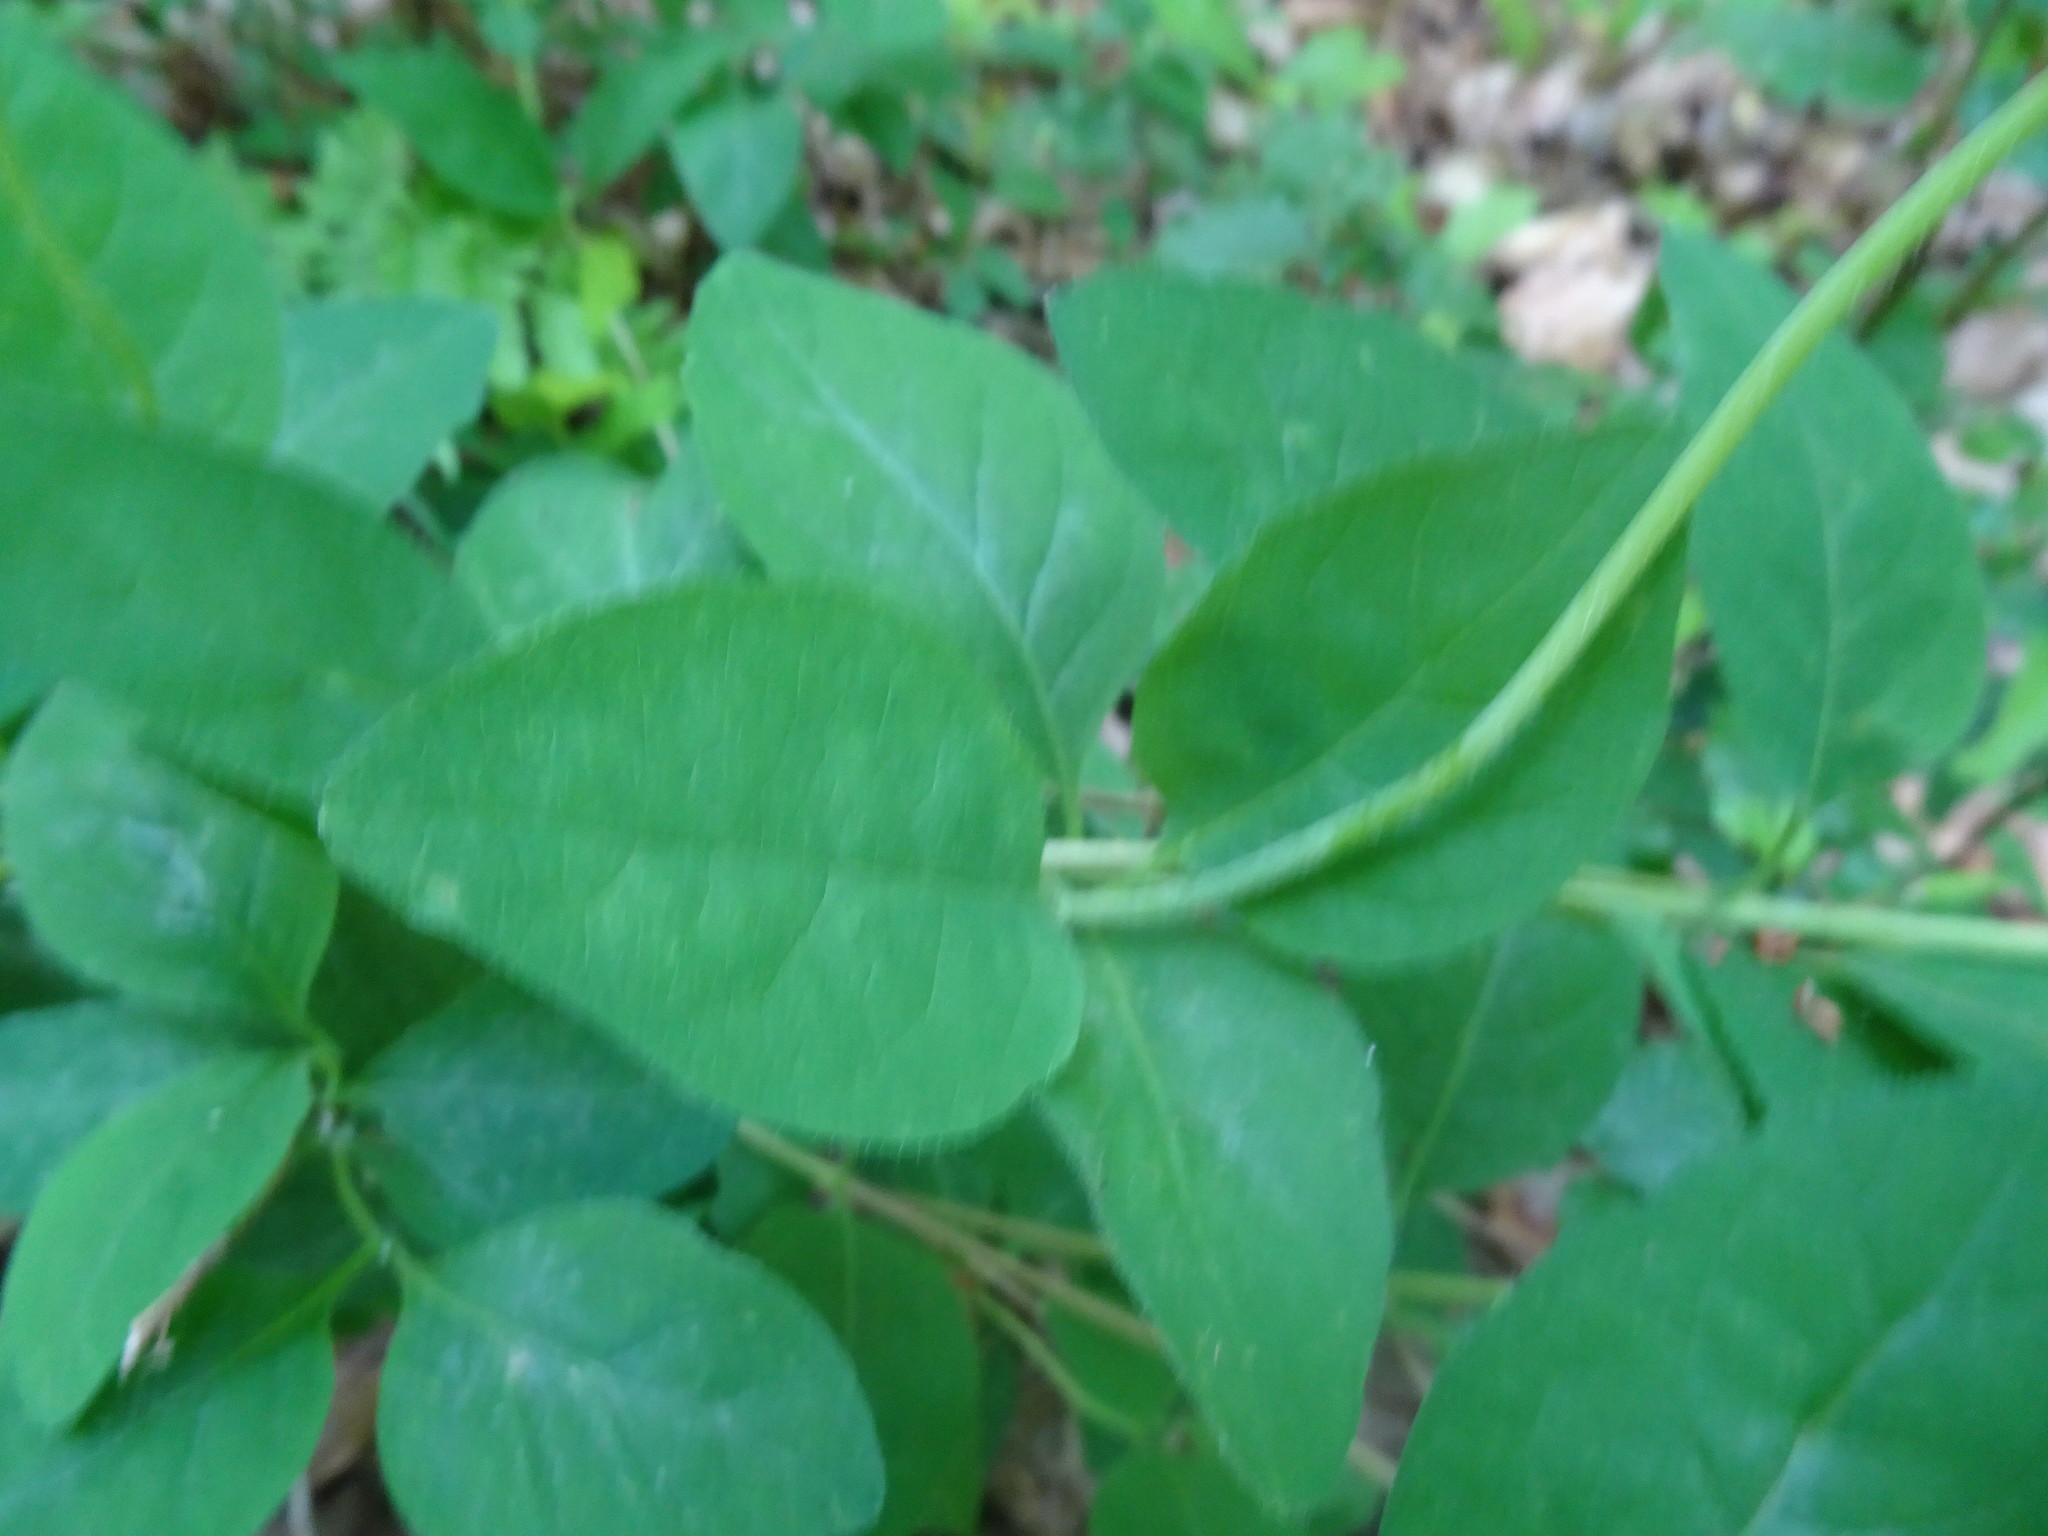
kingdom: Plantae
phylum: Tracheophyta
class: Magnoliopsida
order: Dipsacales
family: Caprifoliaceae
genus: Lonicera
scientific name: Lonicera periclymenum
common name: European honeysuckle
